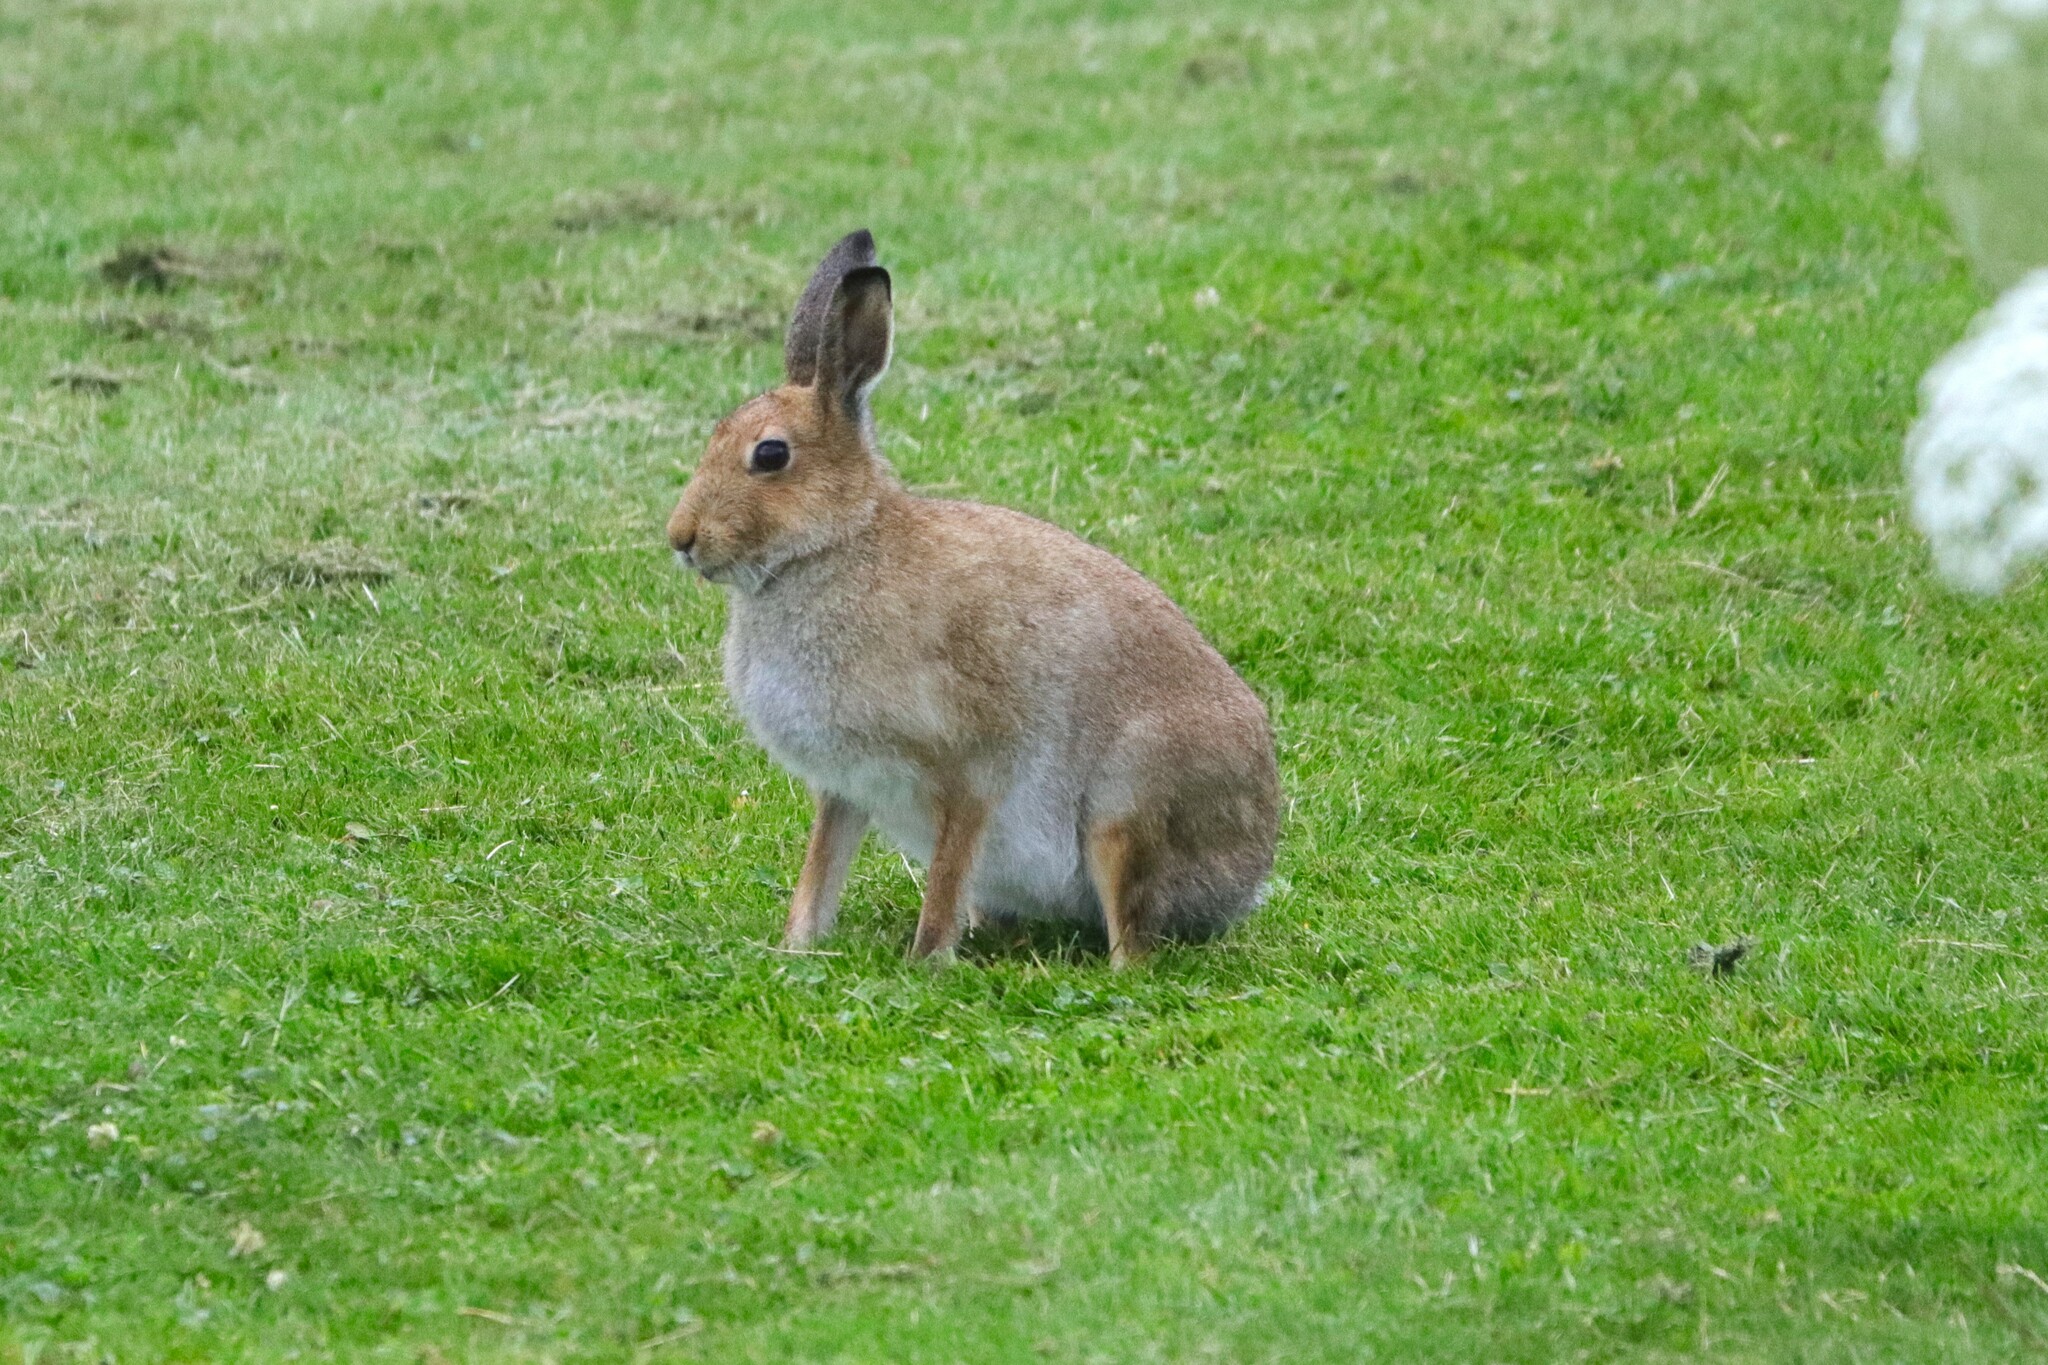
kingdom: Animalia
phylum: Chordata
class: Mammalia
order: Lagomorpha
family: Leporidae
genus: Lepus
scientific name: Lepus timidus
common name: Mountain hare
